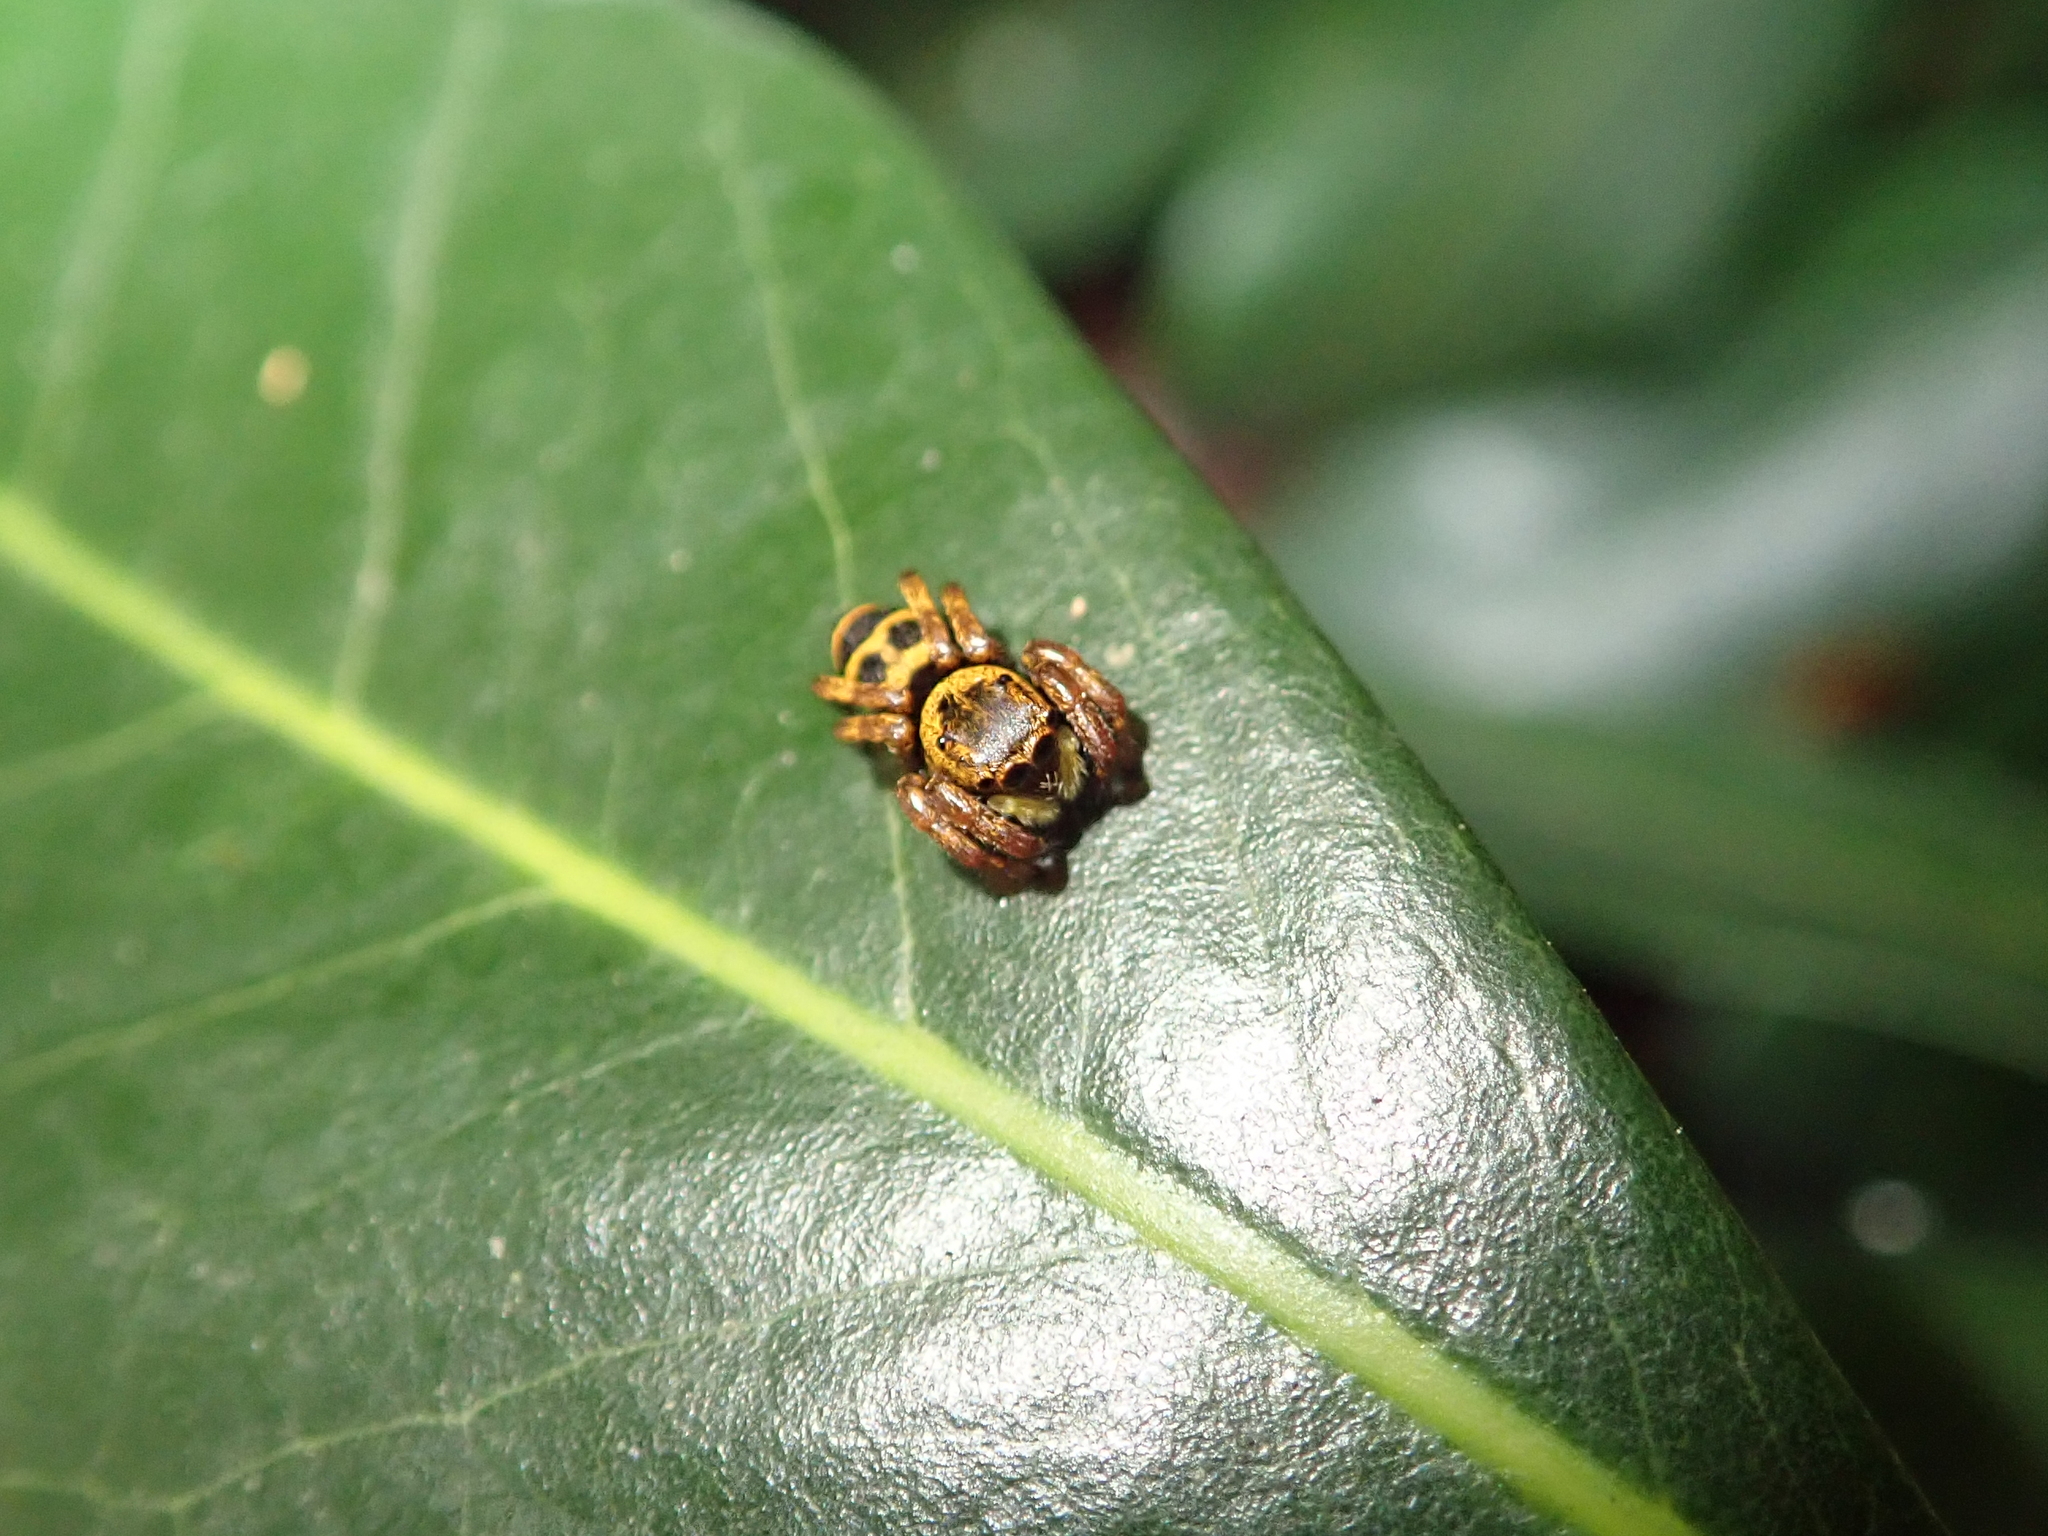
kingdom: Animalia
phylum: Arthropoda
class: Arachnida
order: Araneae
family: Salticidae
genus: Phiale
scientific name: Phiale tristis
